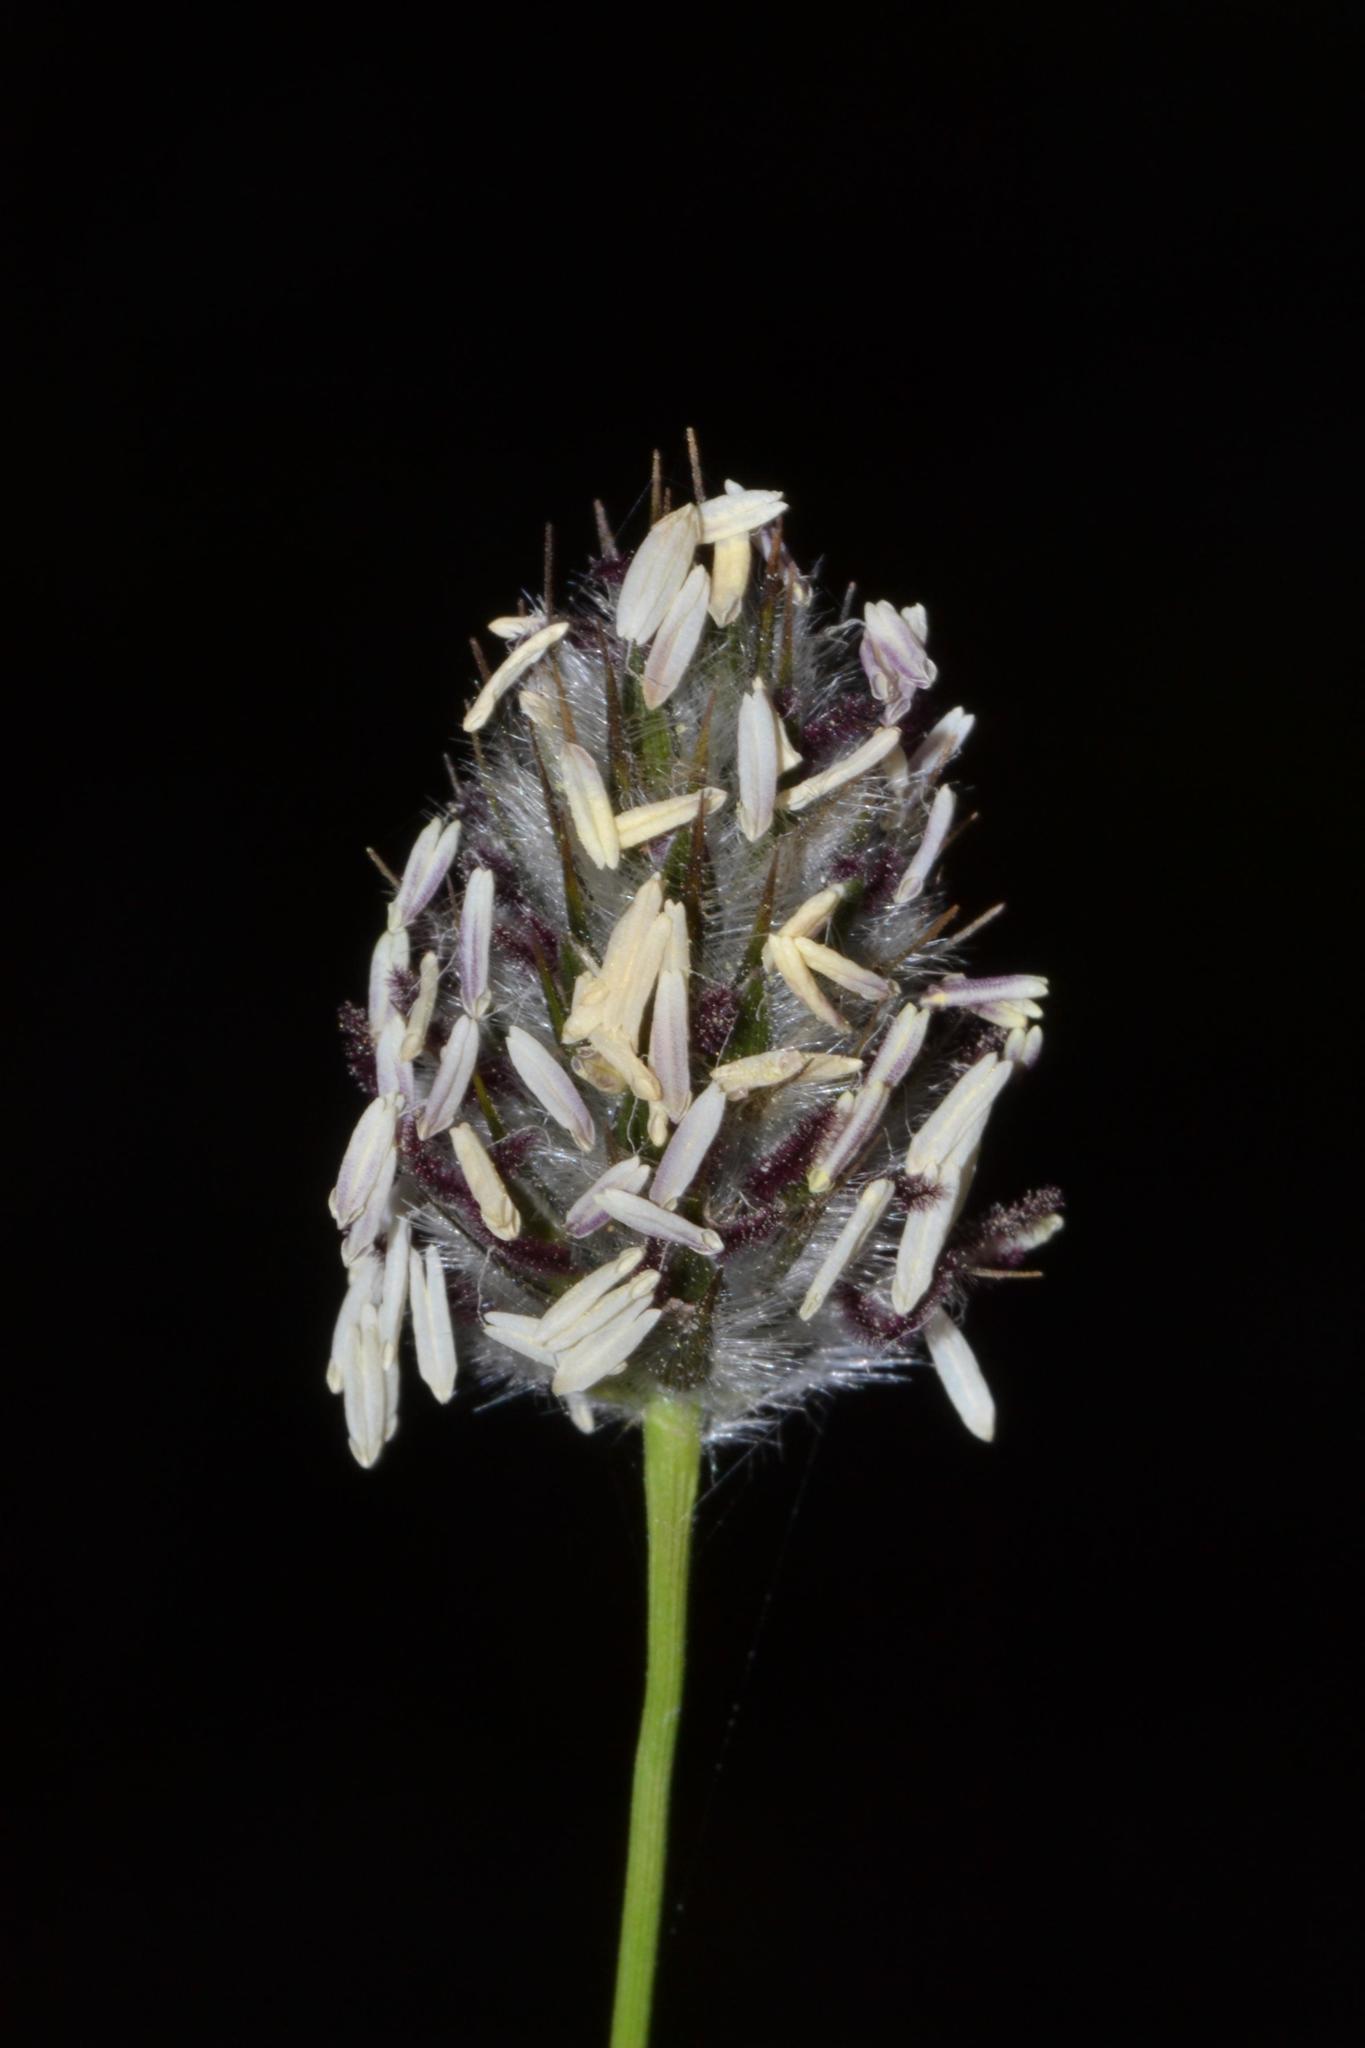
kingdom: Plantae
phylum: Tracheophyta
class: Liliopsida
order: Poales
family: Poaceae
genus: Neurachne
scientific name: Neurachne alopecuroidea
